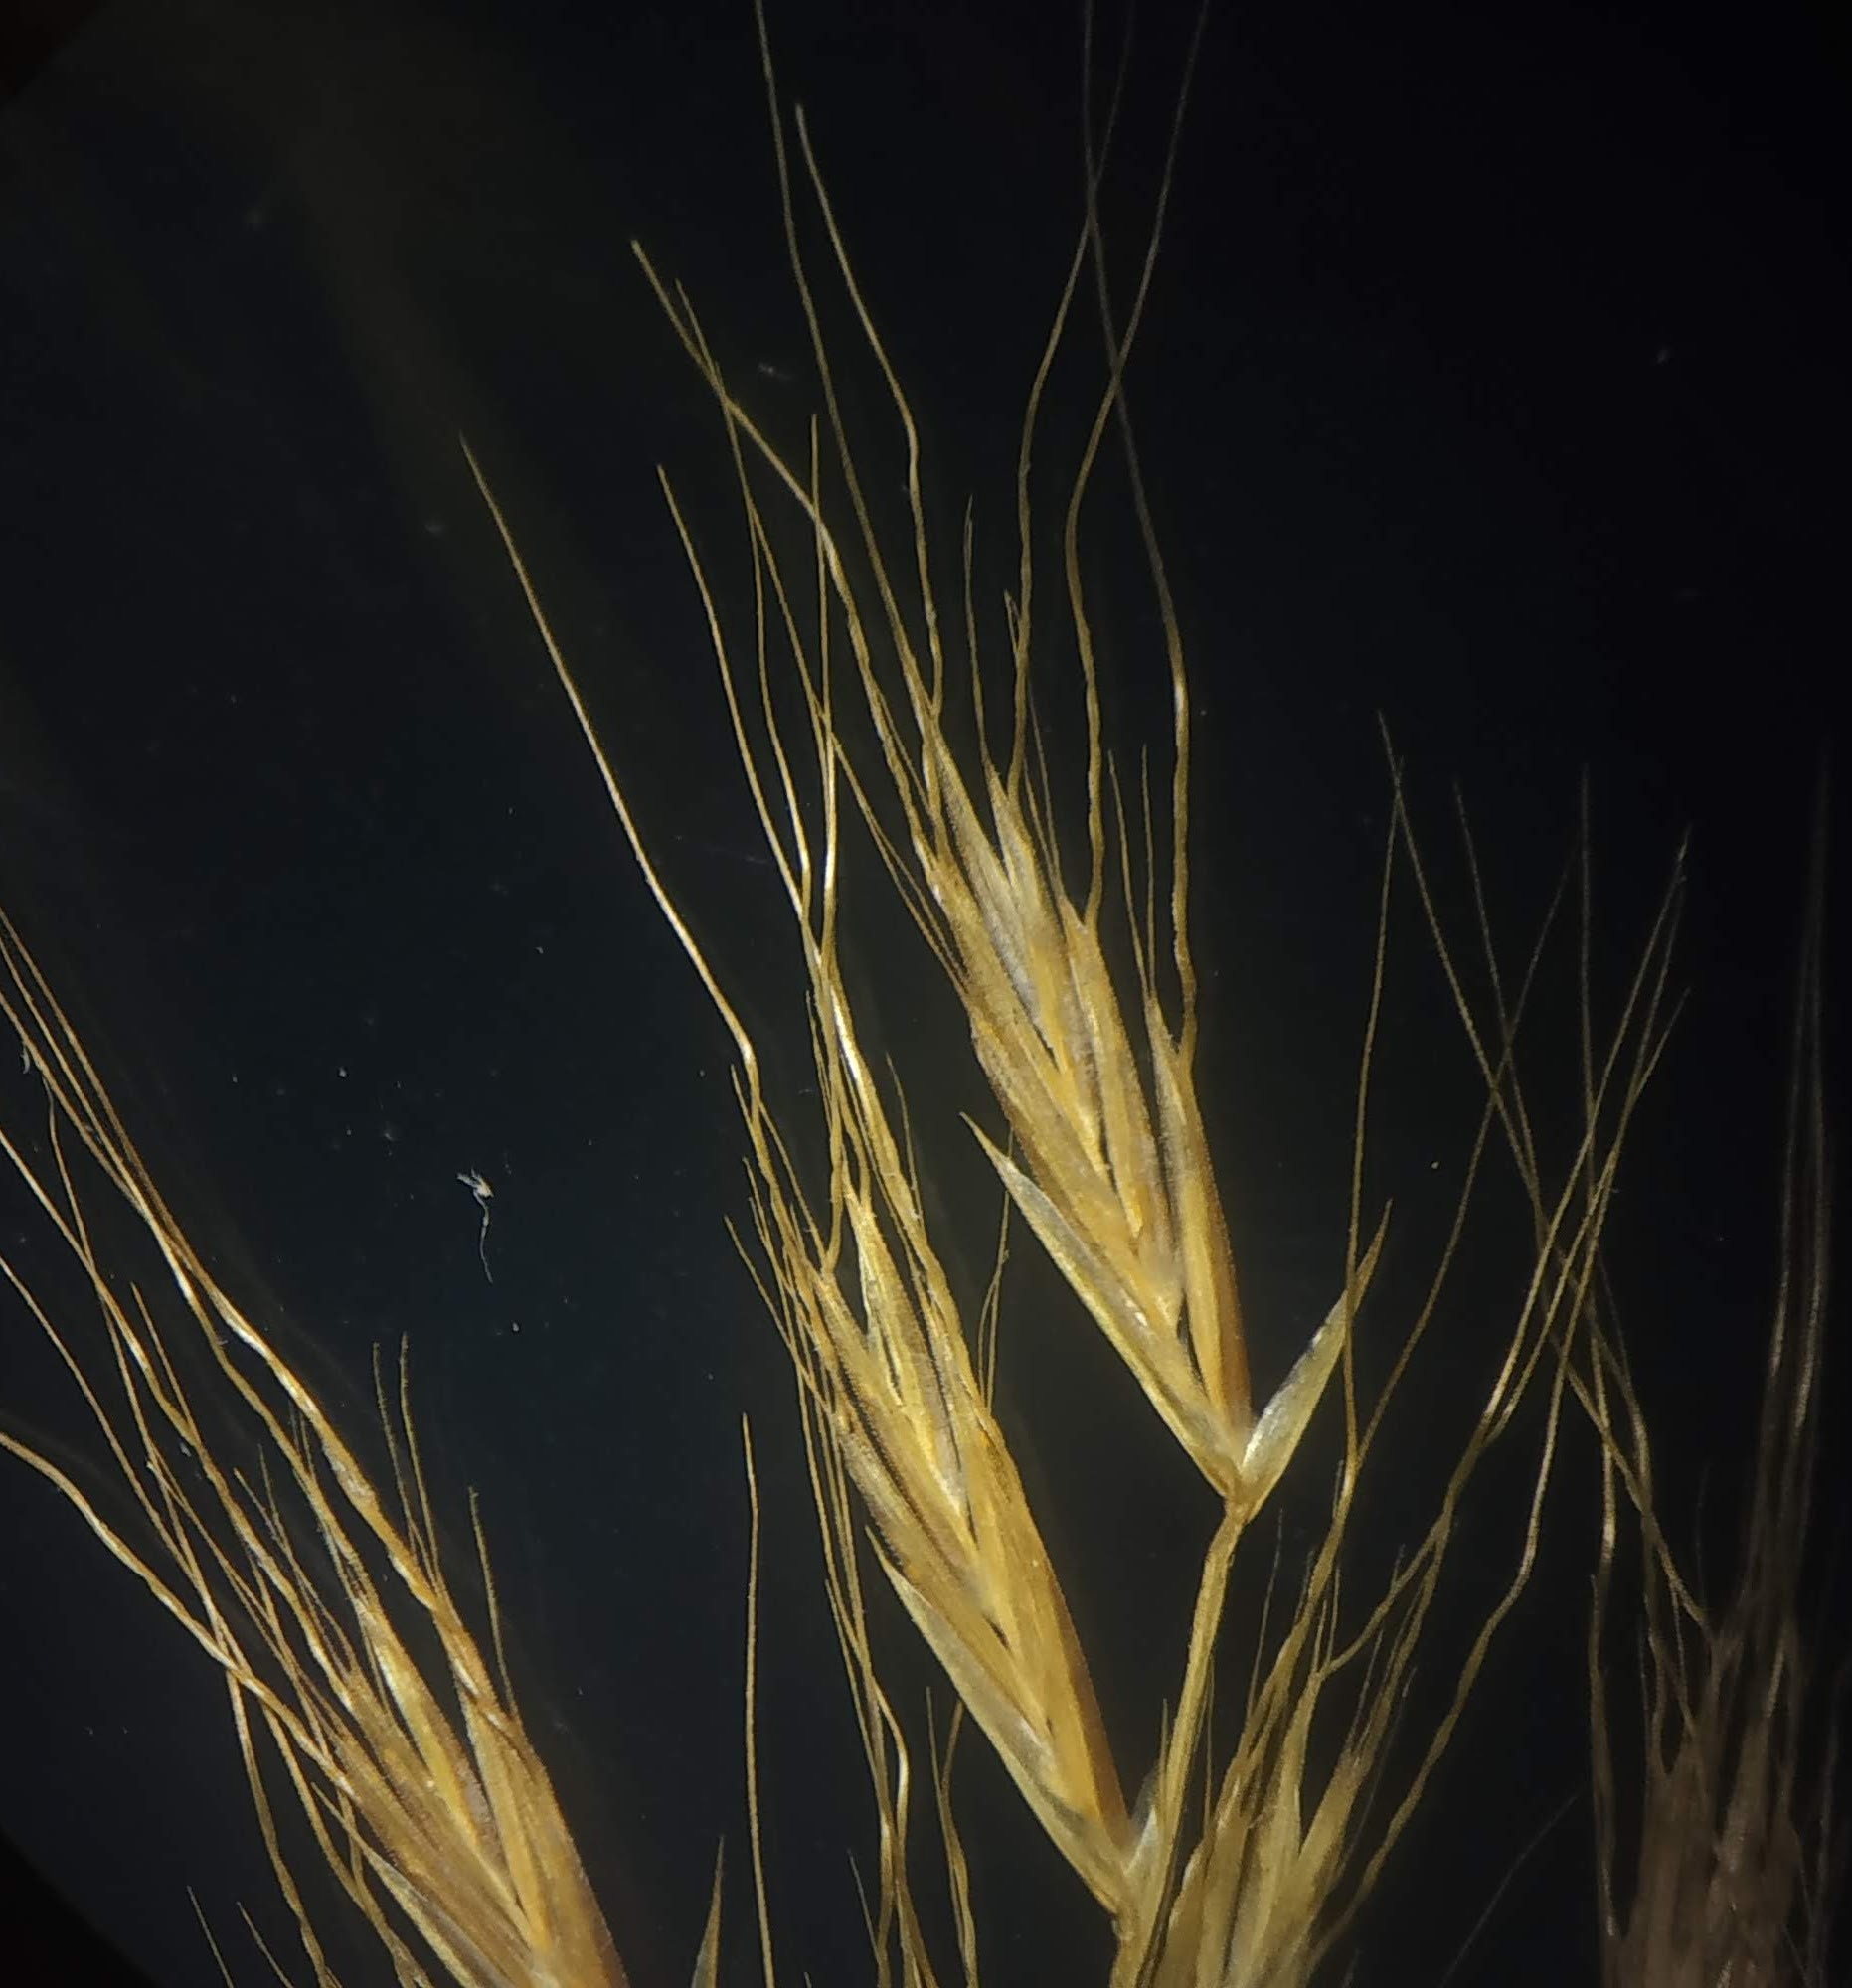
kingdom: Plantae
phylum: Tracheophyta
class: Liliopsida
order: Poales
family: Poaceae
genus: Indopoa
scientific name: Indopoa paupercula
